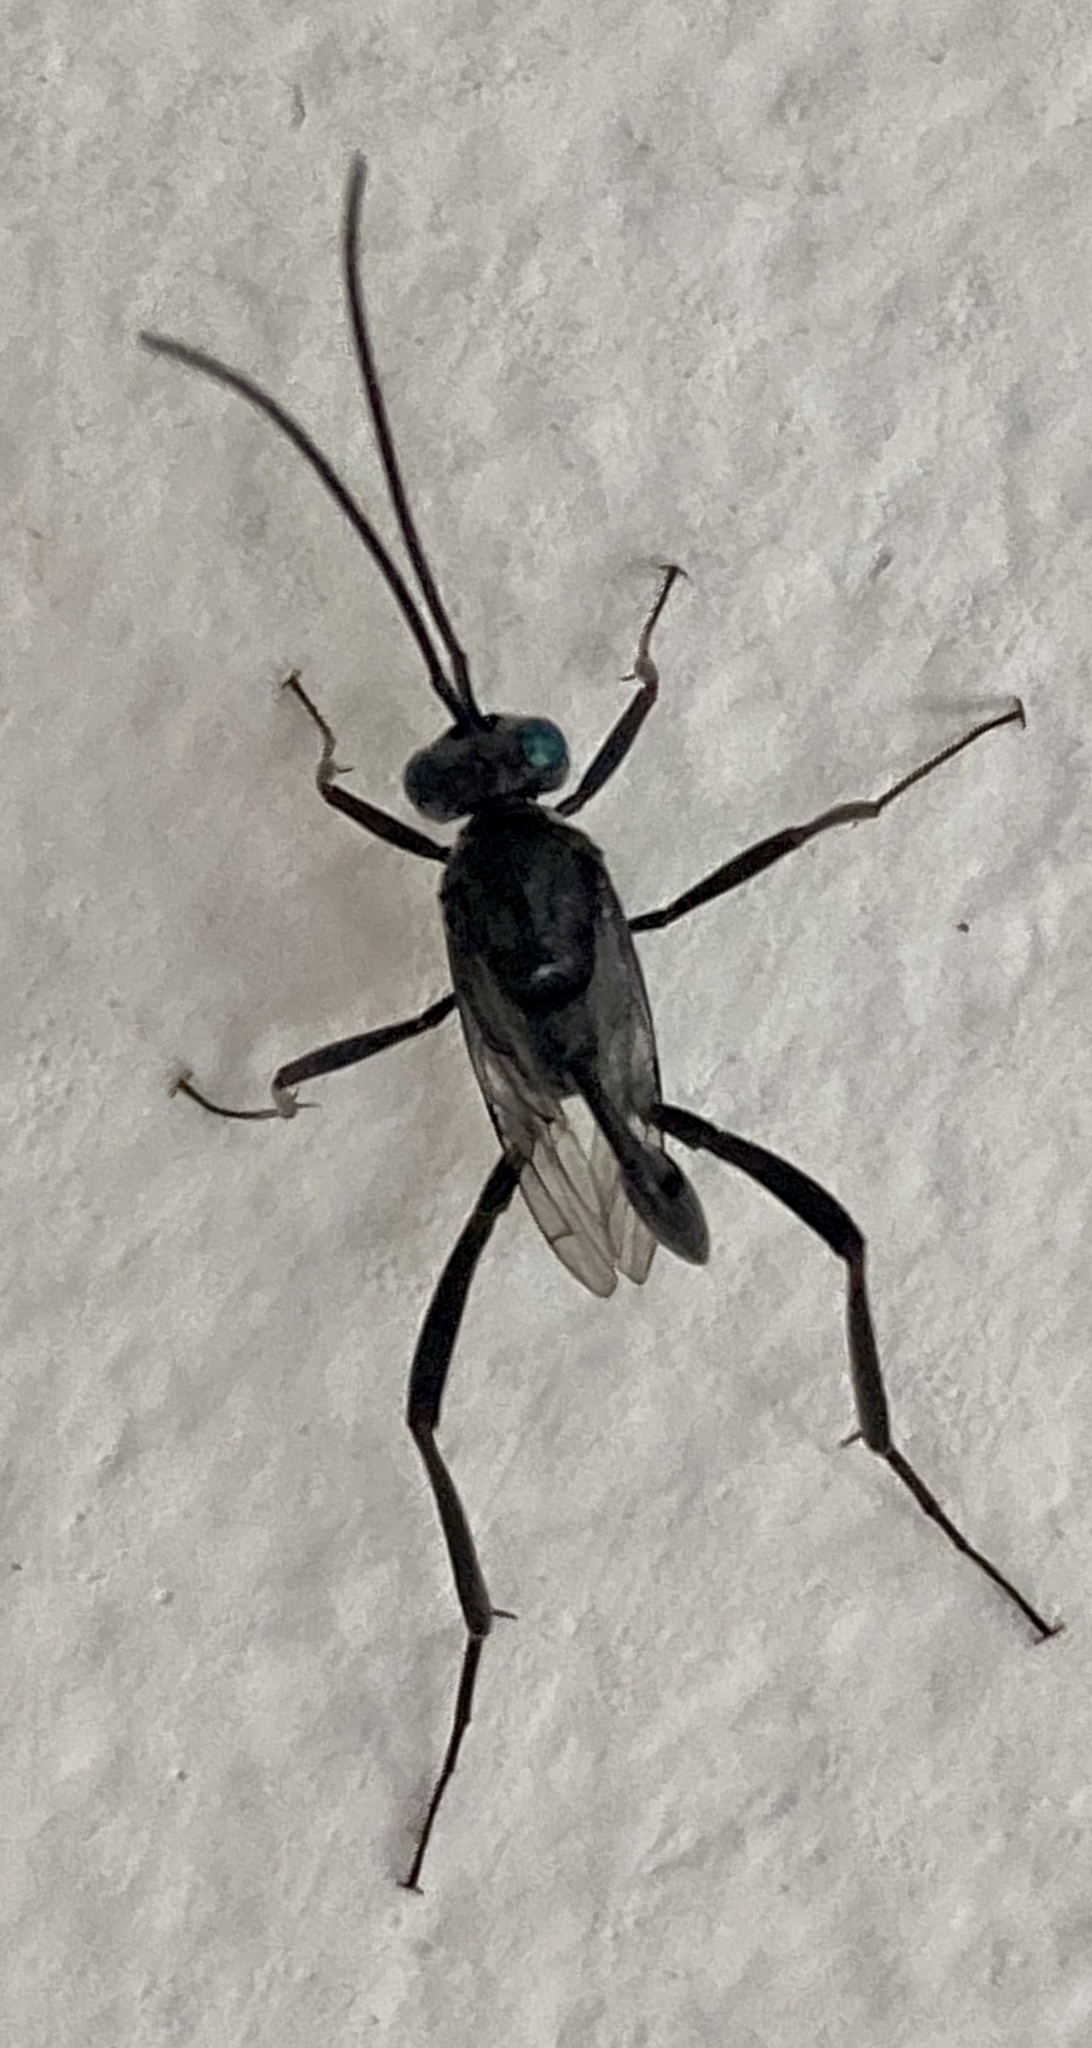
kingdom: Animalia
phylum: Arthropoda
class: Insecta
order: Hymenoptera
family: Evaniidae
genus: Evania
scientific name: Evania appendigaster
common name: Ensign wasp
